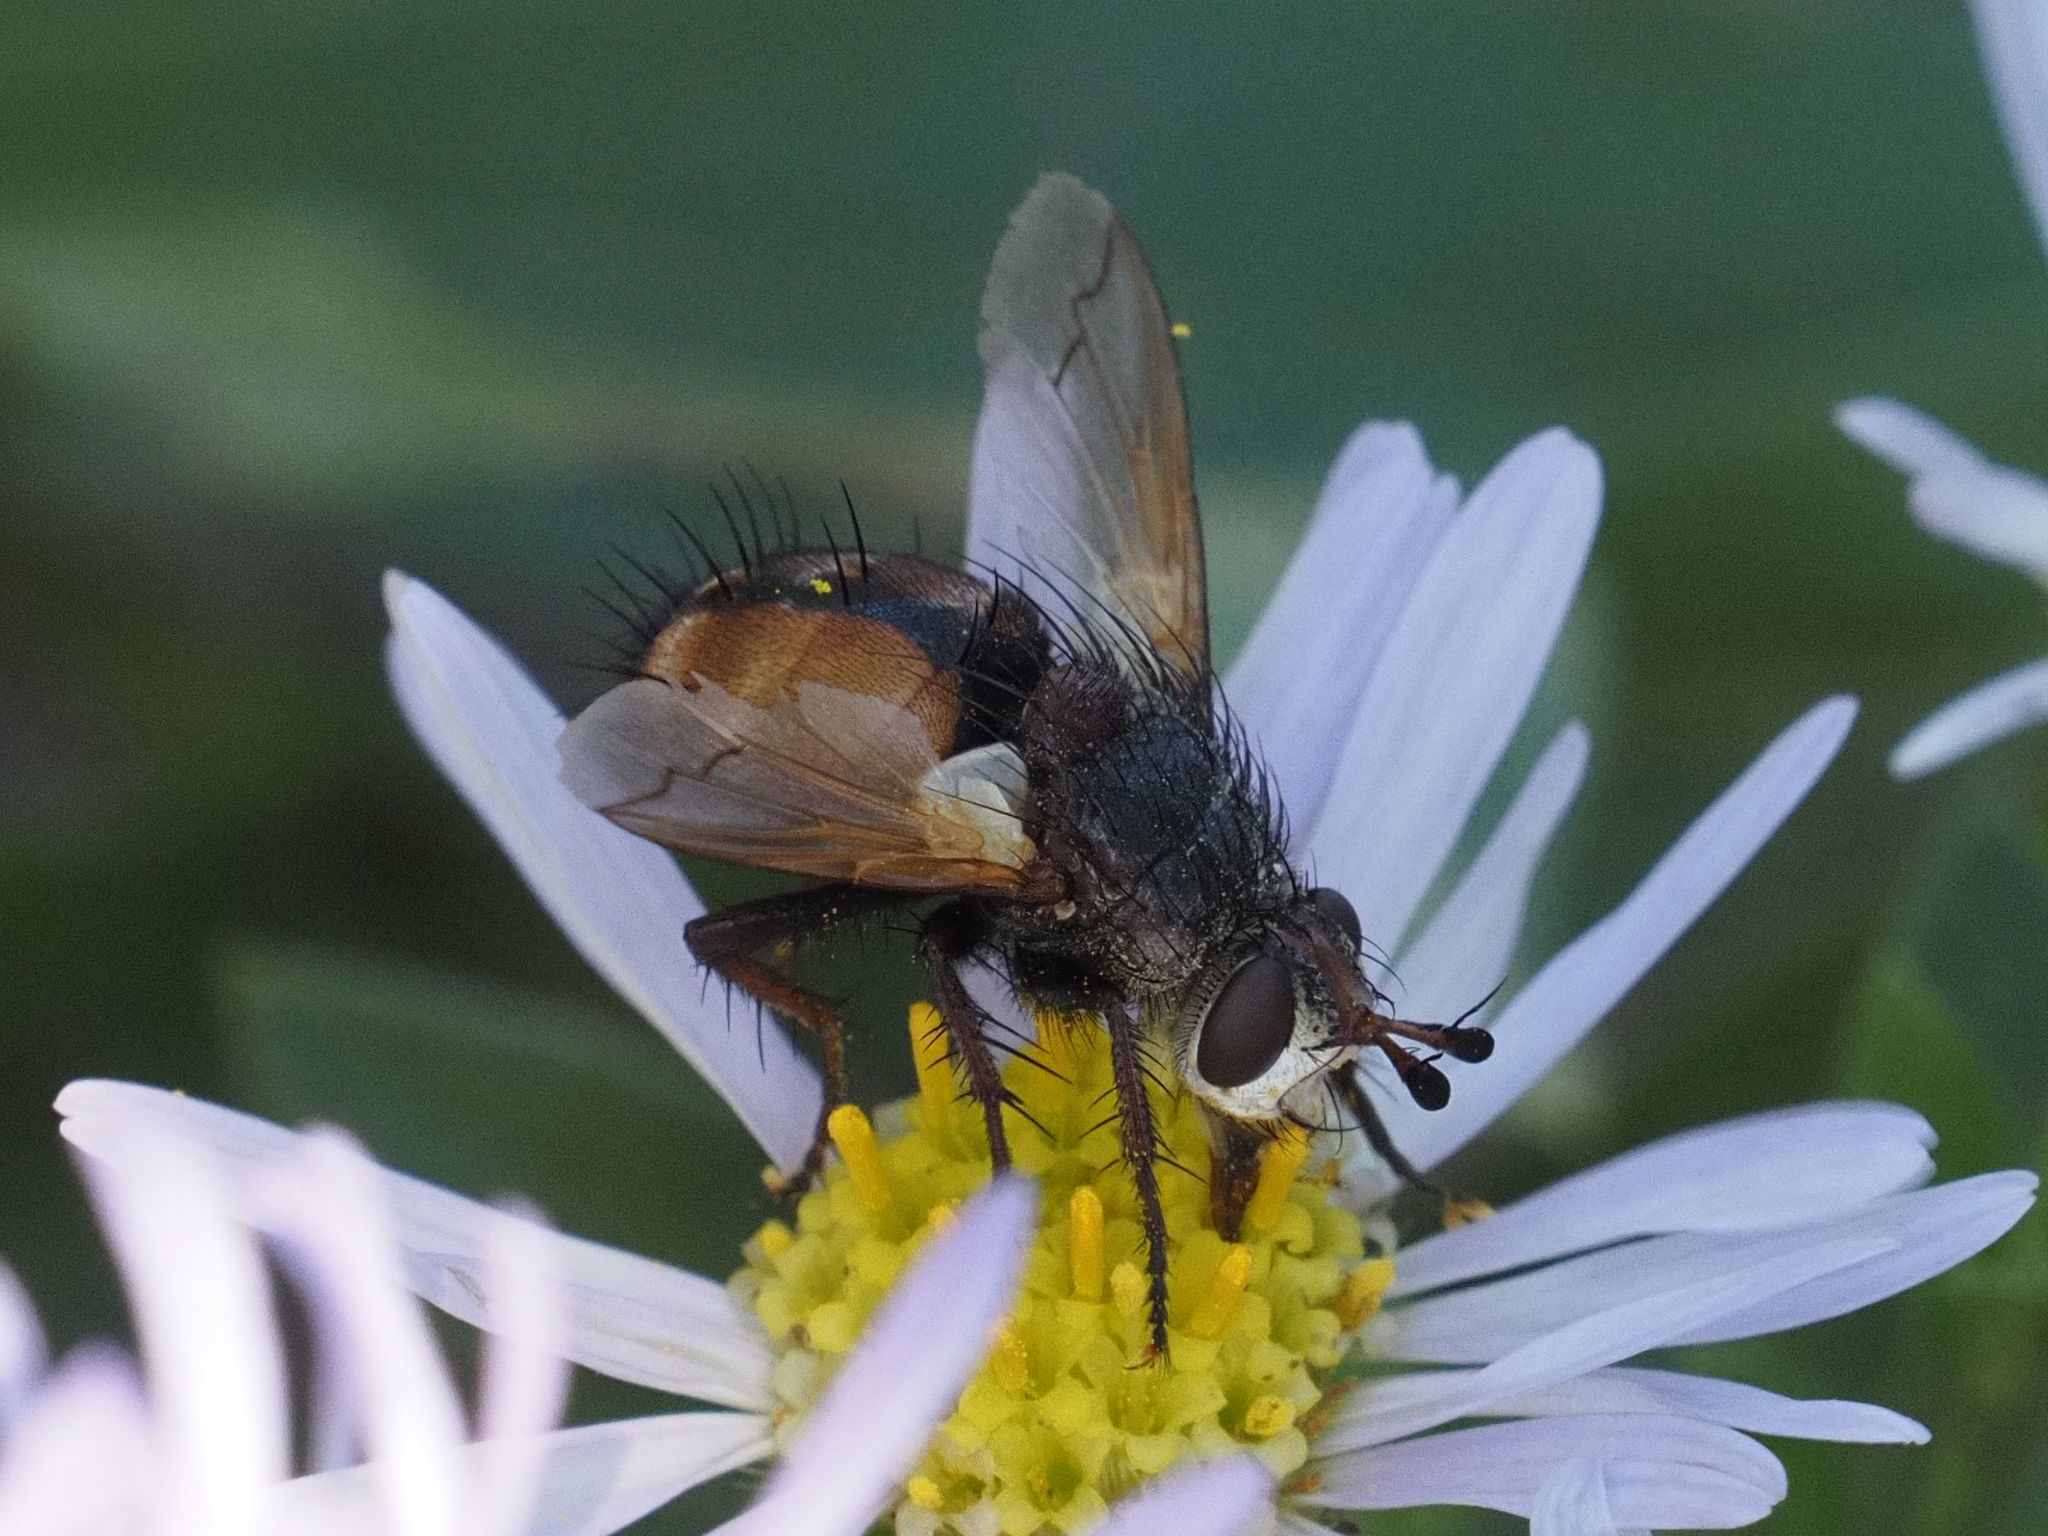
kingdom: Animalia
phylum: Arthropoda
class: Insecta
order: Diptera
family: Tachinidae
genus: Tachina
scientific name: Tachina fera
